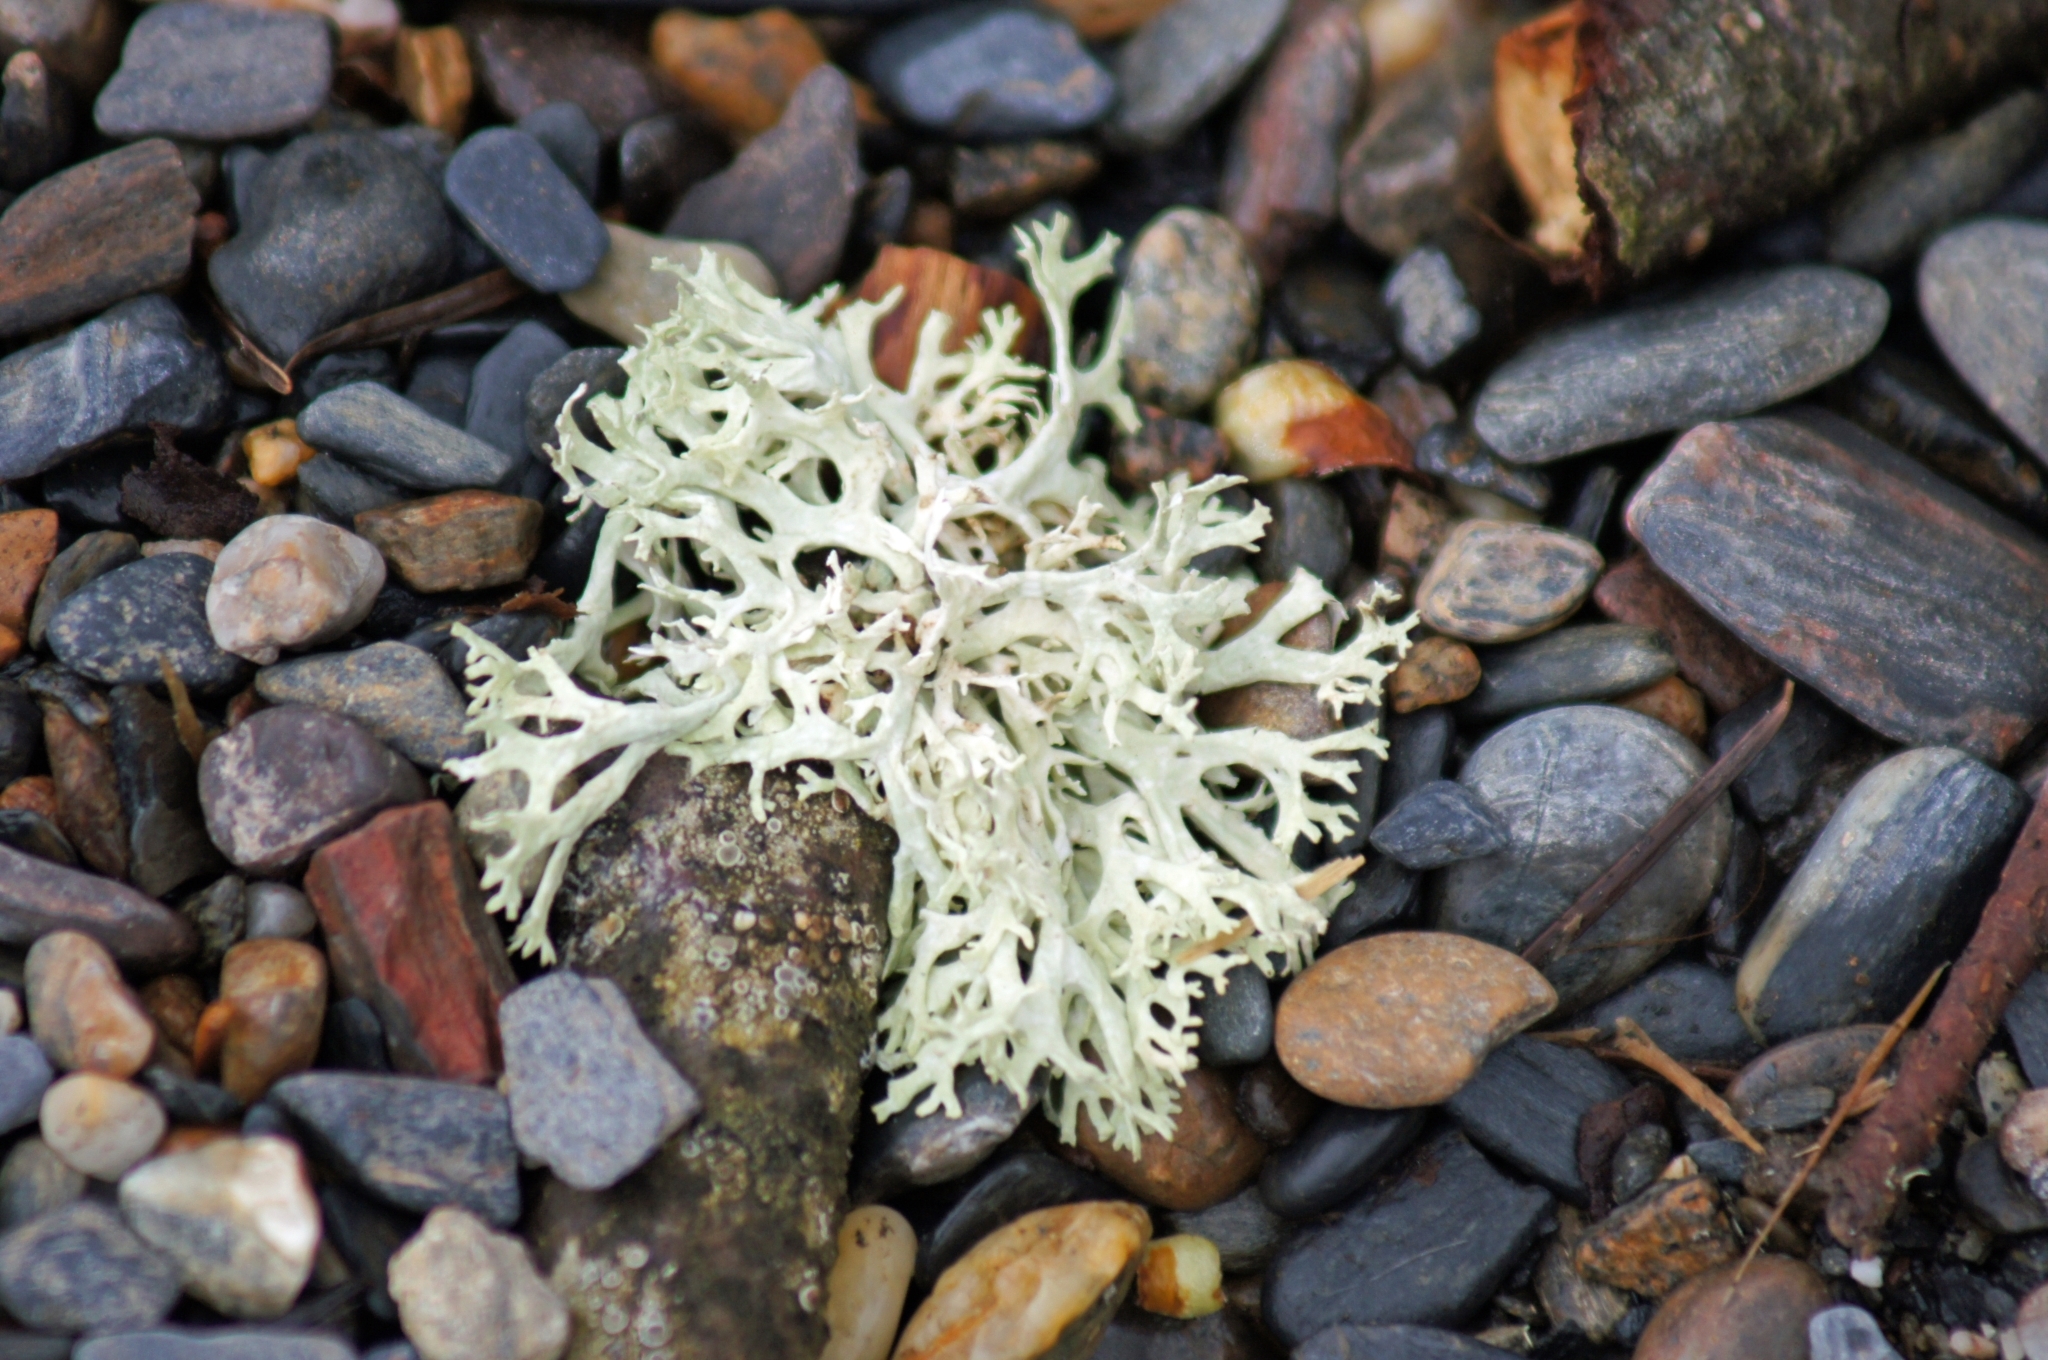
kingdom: Fungi
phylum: Ascomycota
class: Lecanoromycetes
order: Lecanorales
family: Parmeliaceae
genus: Evernia
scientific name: Evernia prunastri
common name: Oak moss
